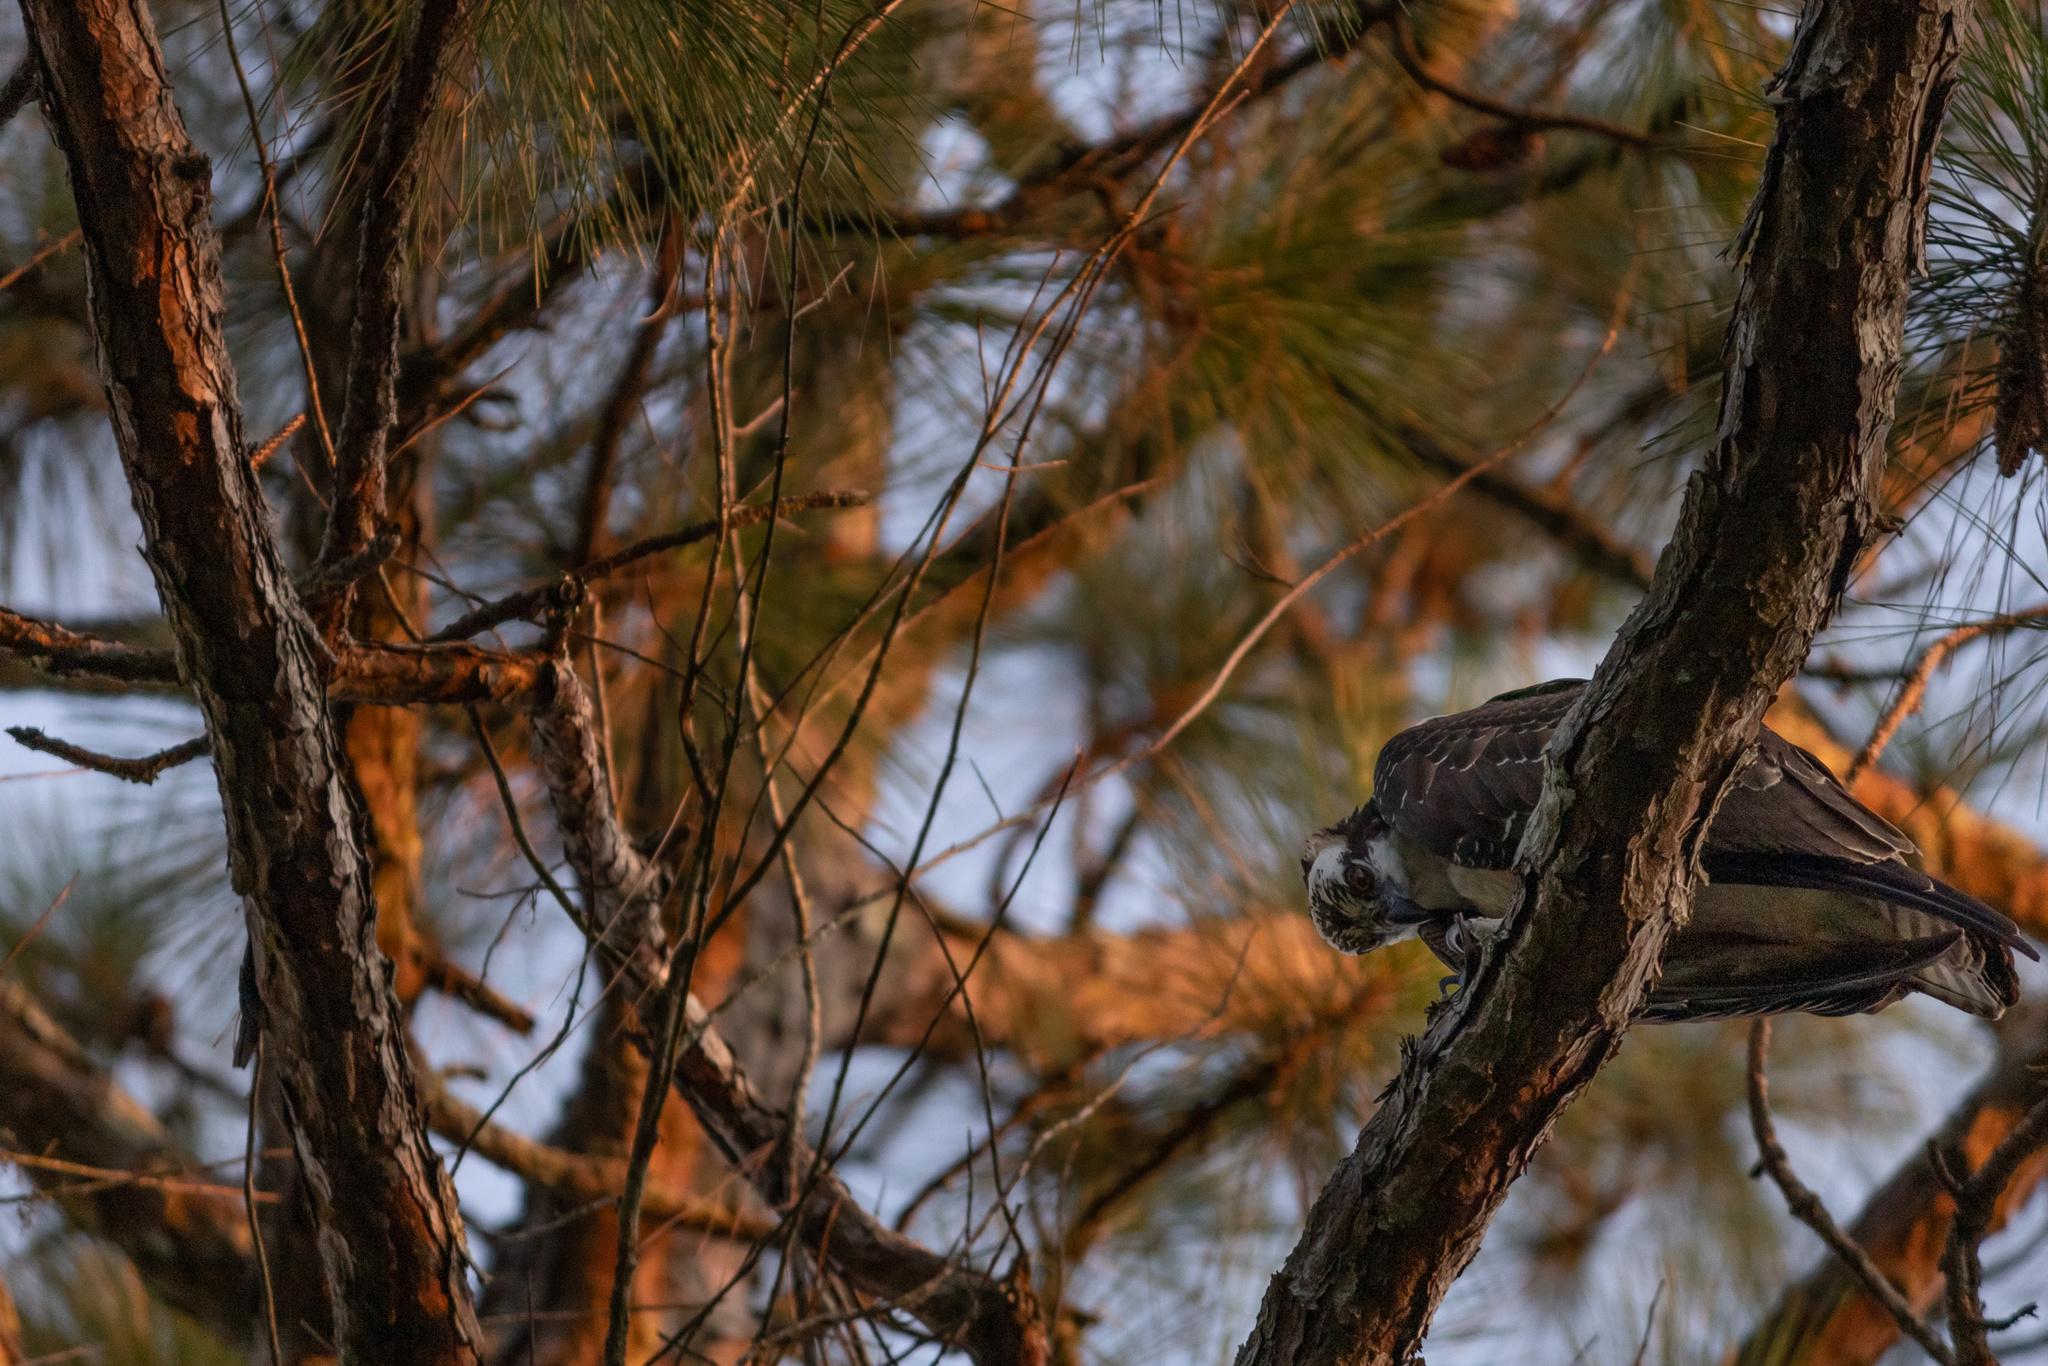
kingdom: Animalia
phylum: Chordata
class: Aves
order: Accipitriformes
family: Pandionidae
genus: Pandion
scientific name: Pandion haliaetus
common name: Osprey
